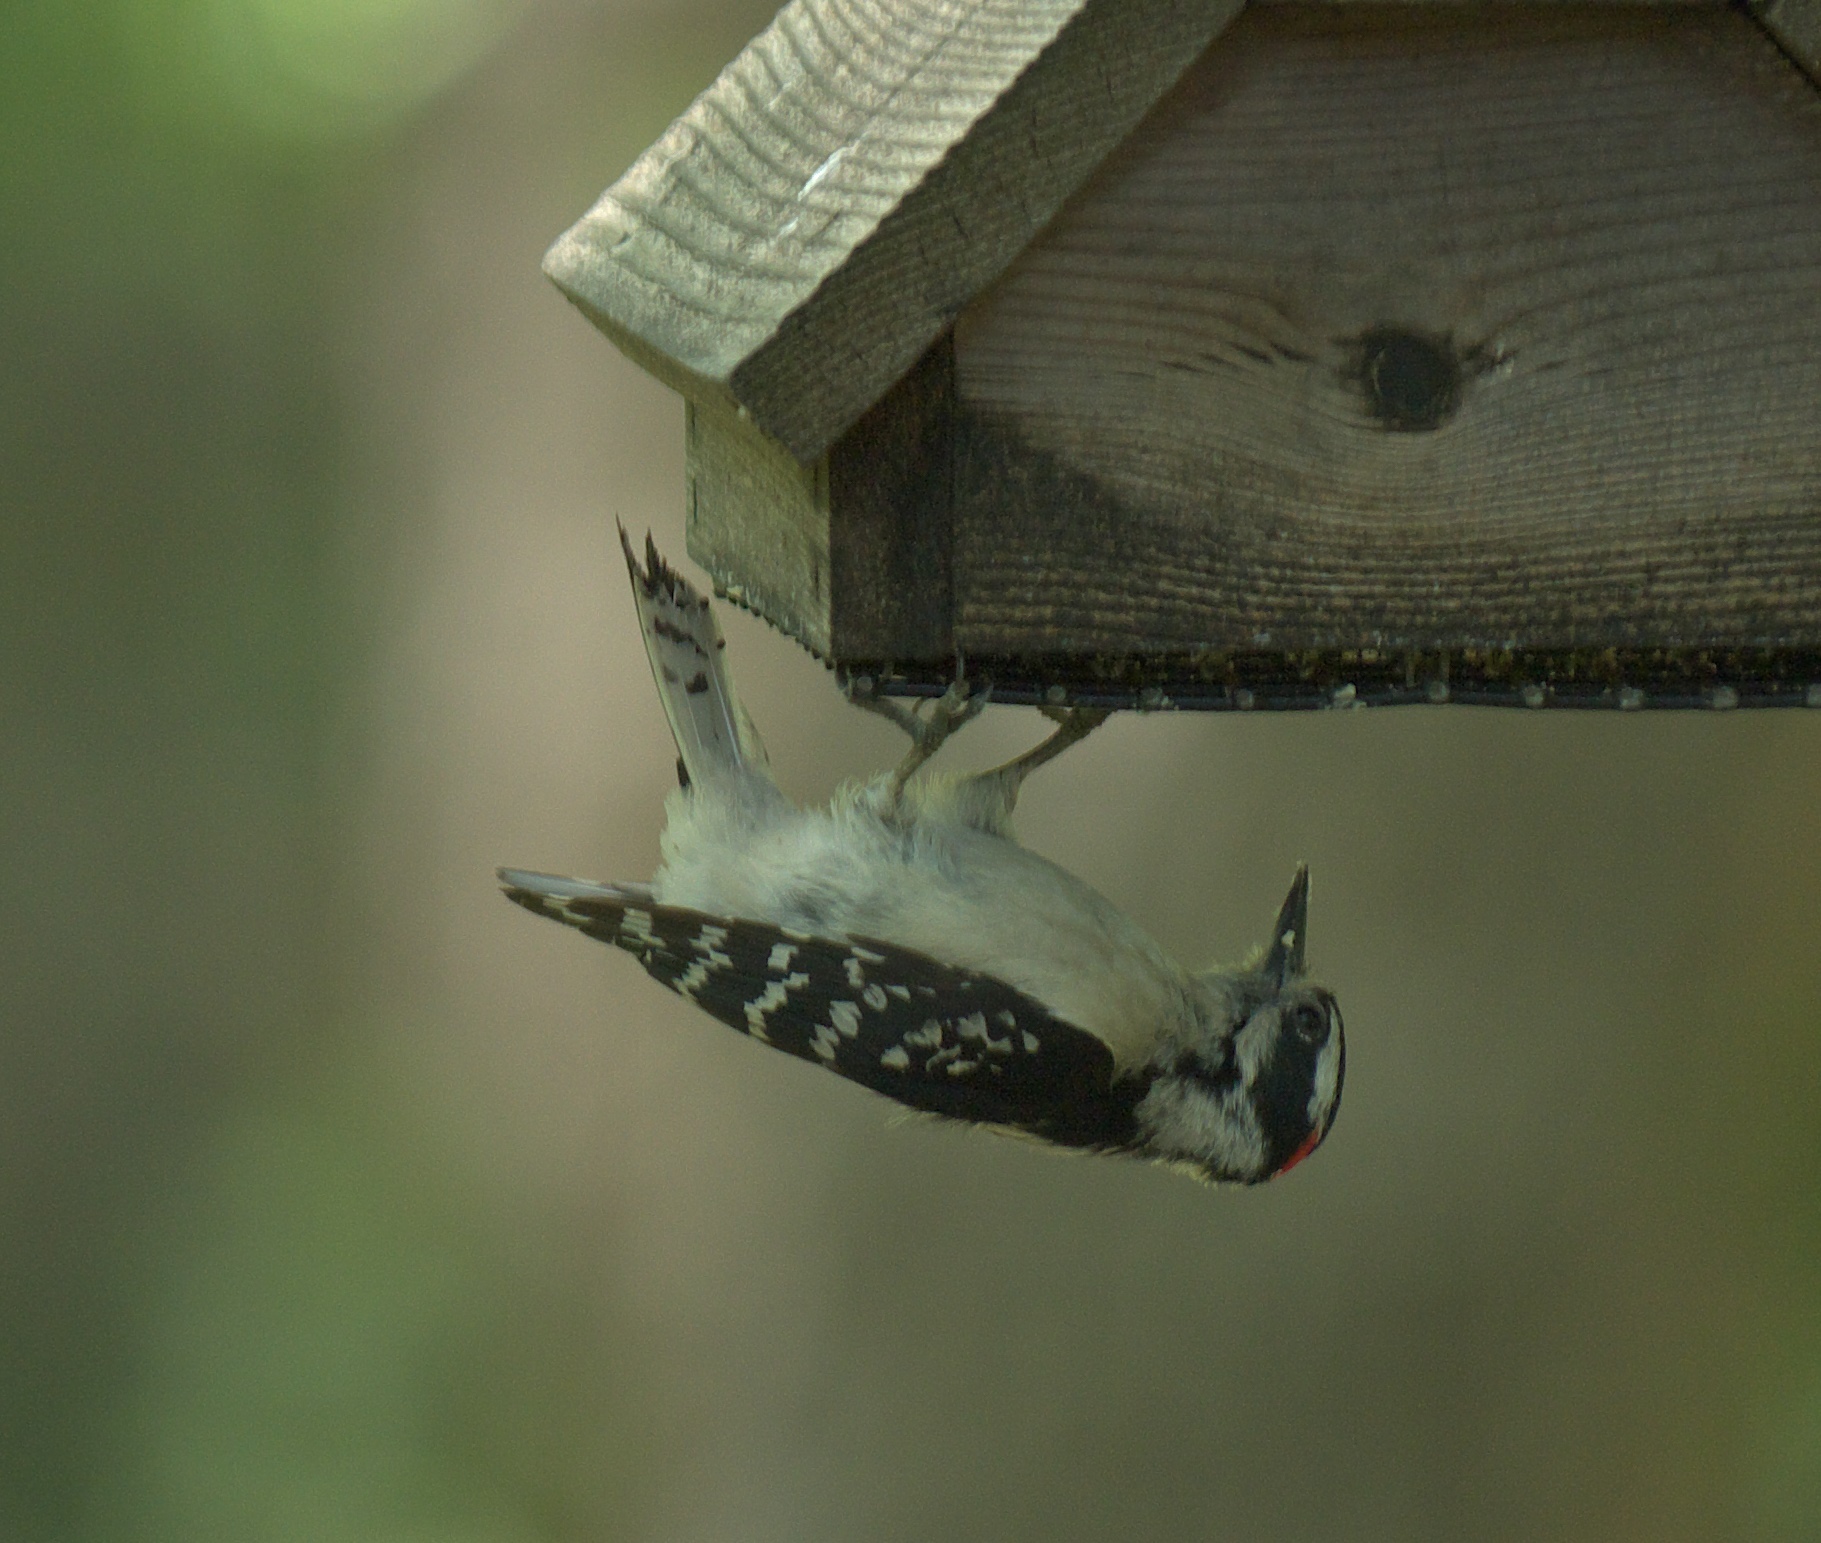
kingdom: Animalia
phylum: Chordata
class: Aves
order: Piciformes
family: Picidae
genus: Dryobates
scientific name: Dryobates pubescens
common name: Downy woodpecker
